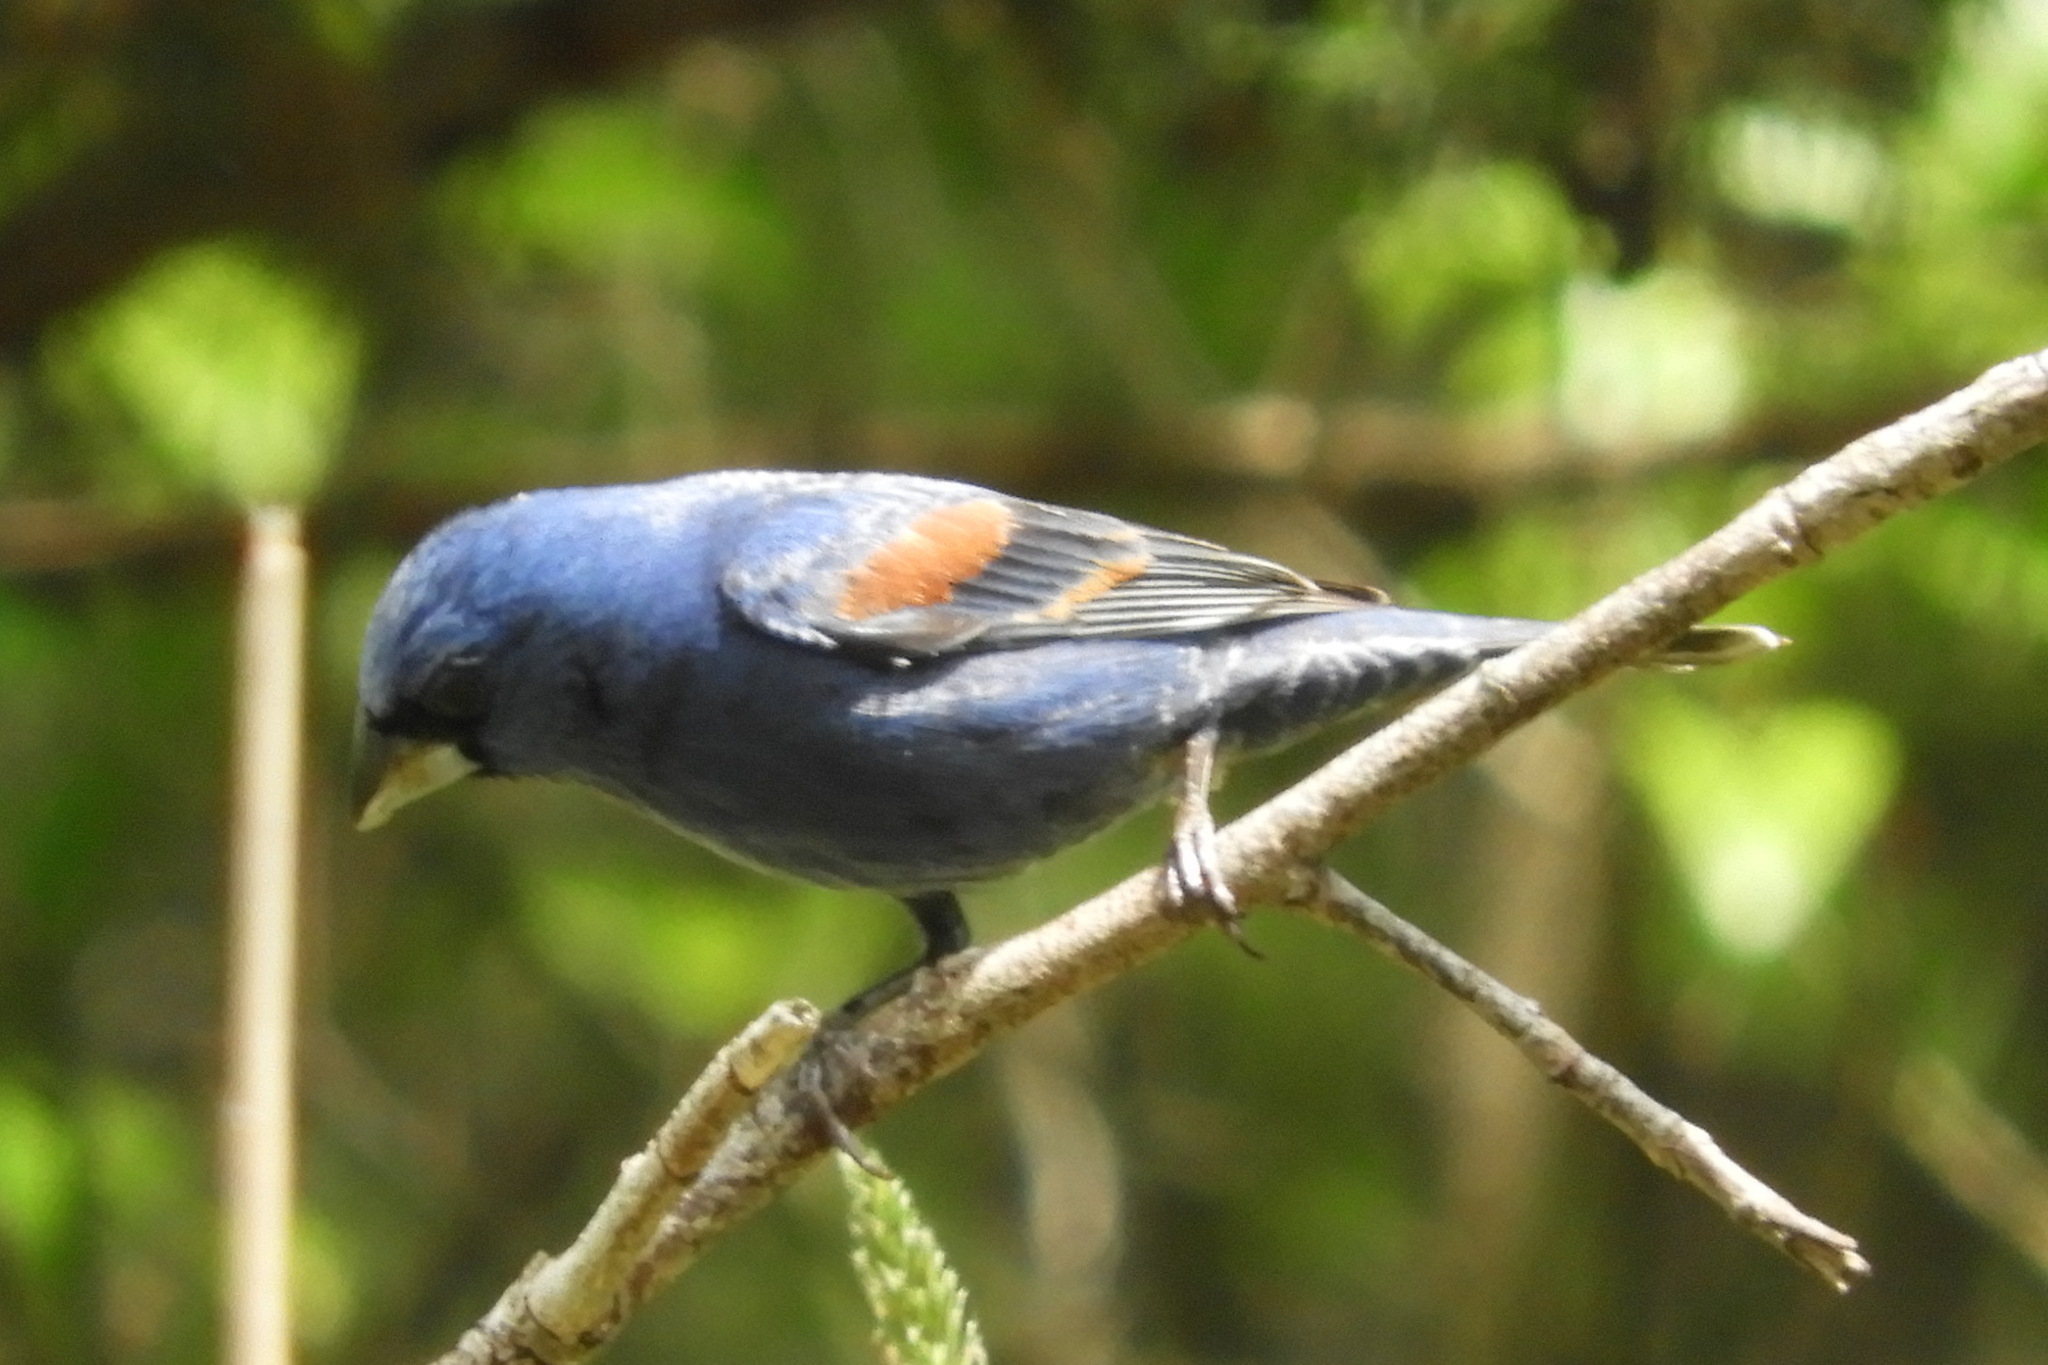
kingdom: Animalia
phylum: Chordata
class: Aves
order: Passeriformes
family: Cardinalidae
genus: Passerina
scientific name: Passerina caerulea
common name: Blue grosbeak
